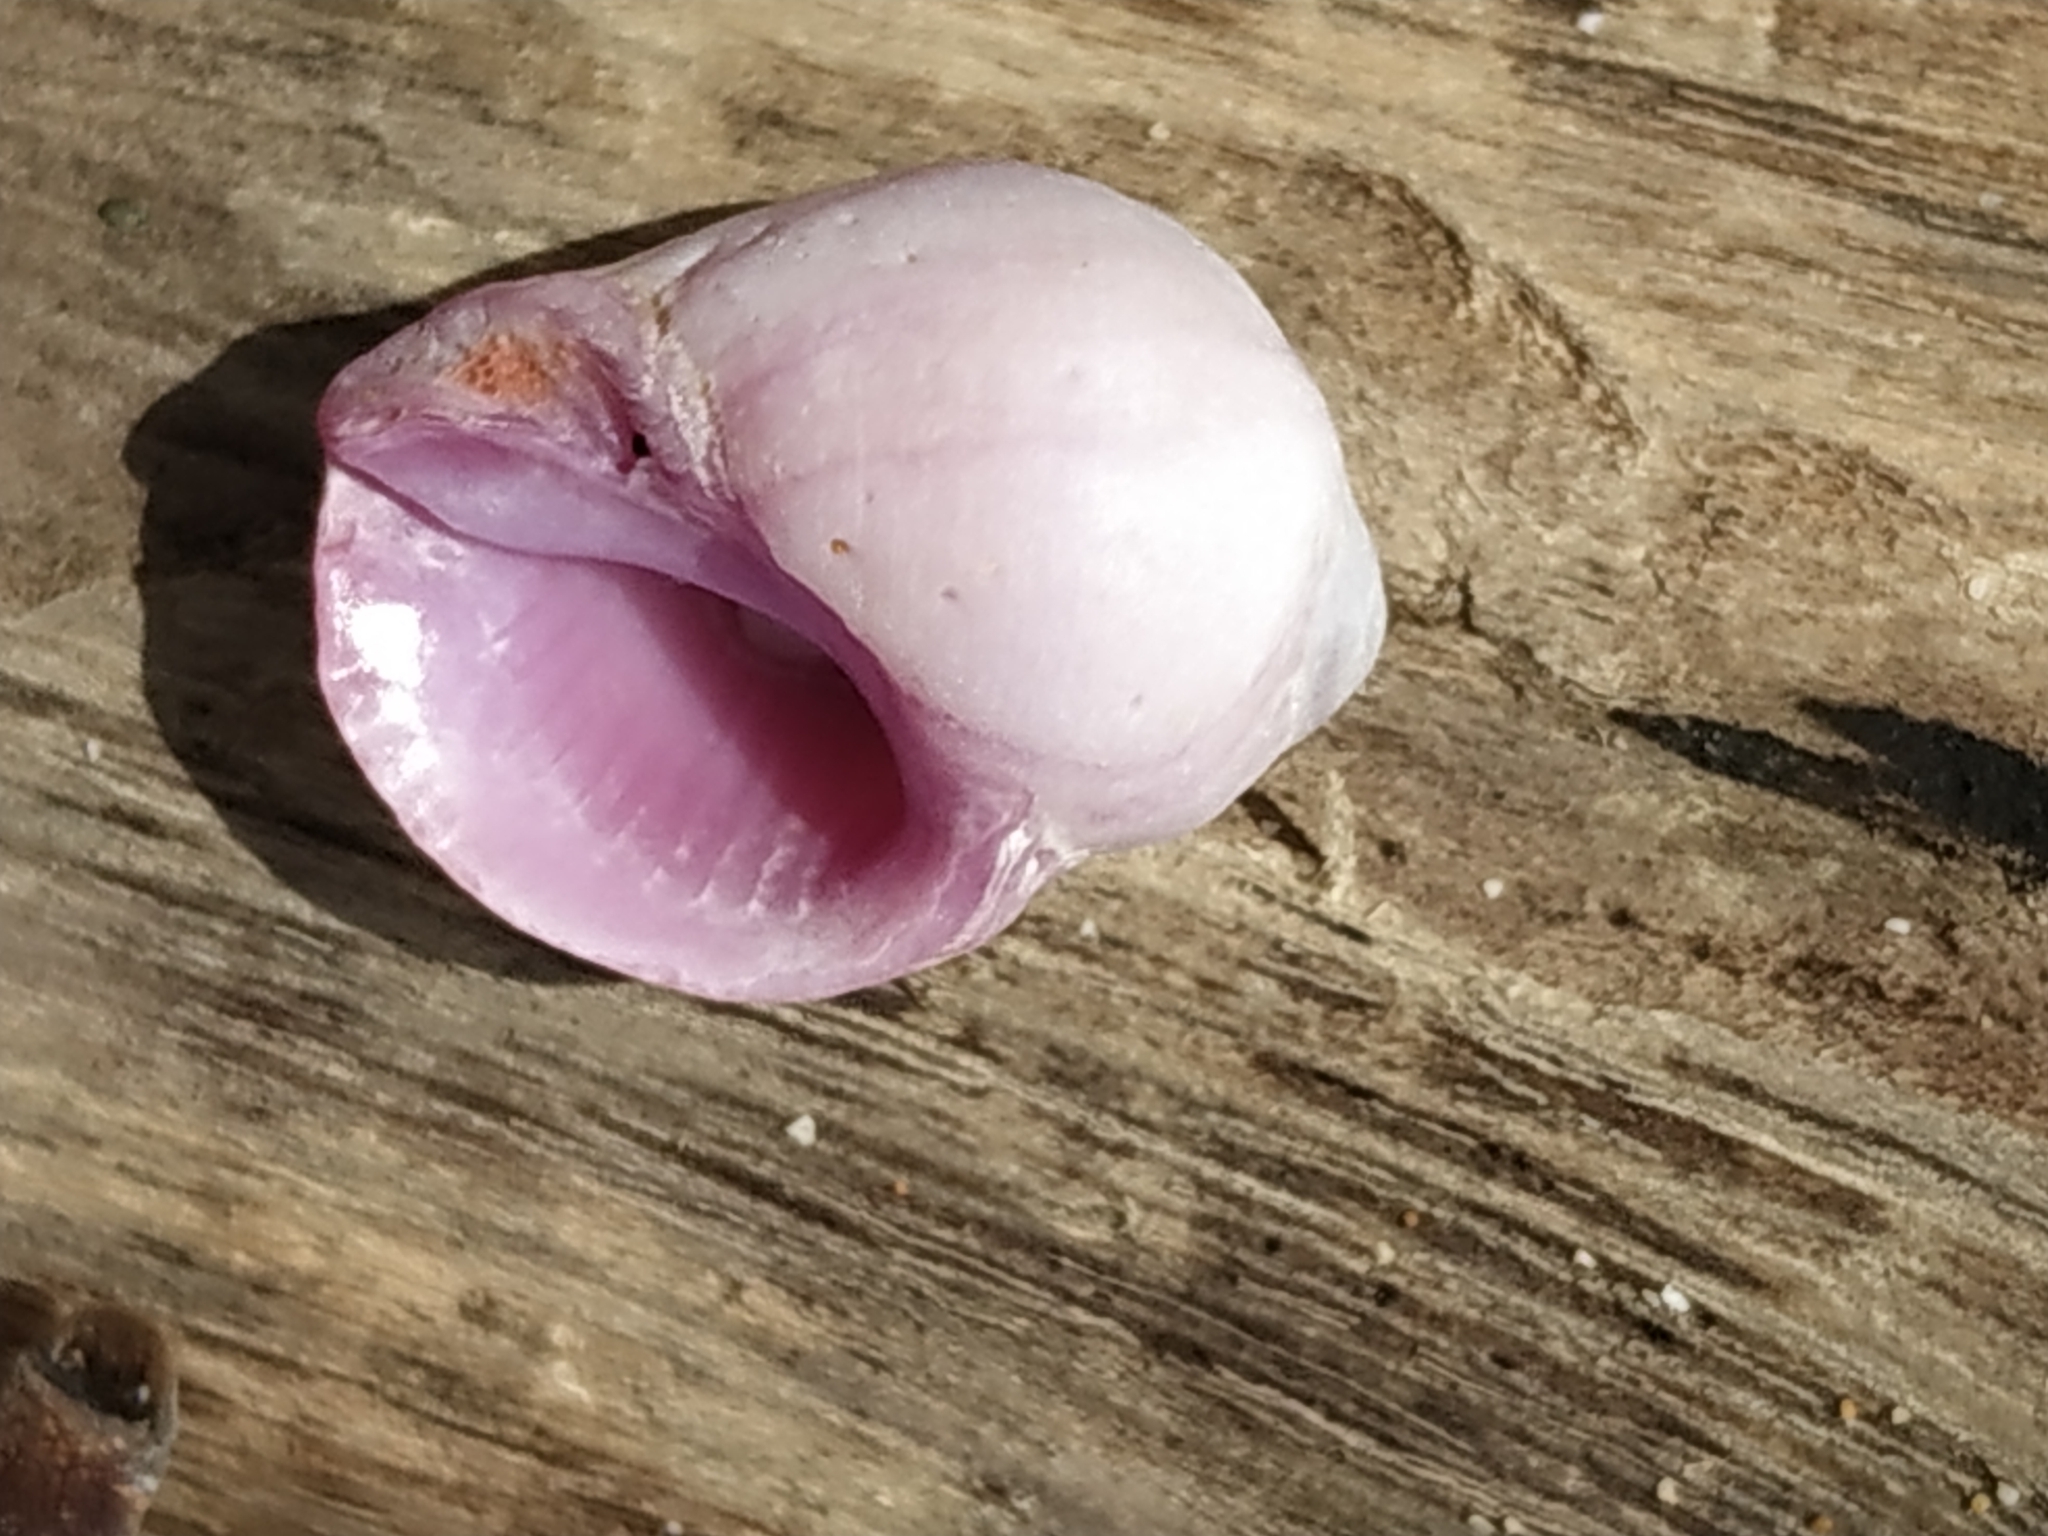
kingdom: Animalia
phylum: Mollusca
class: Gastropoda
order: Neogastropoda
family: Muricidae
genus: Coralliophila
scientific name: Coralliophila violacea
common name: Purple coral snail
